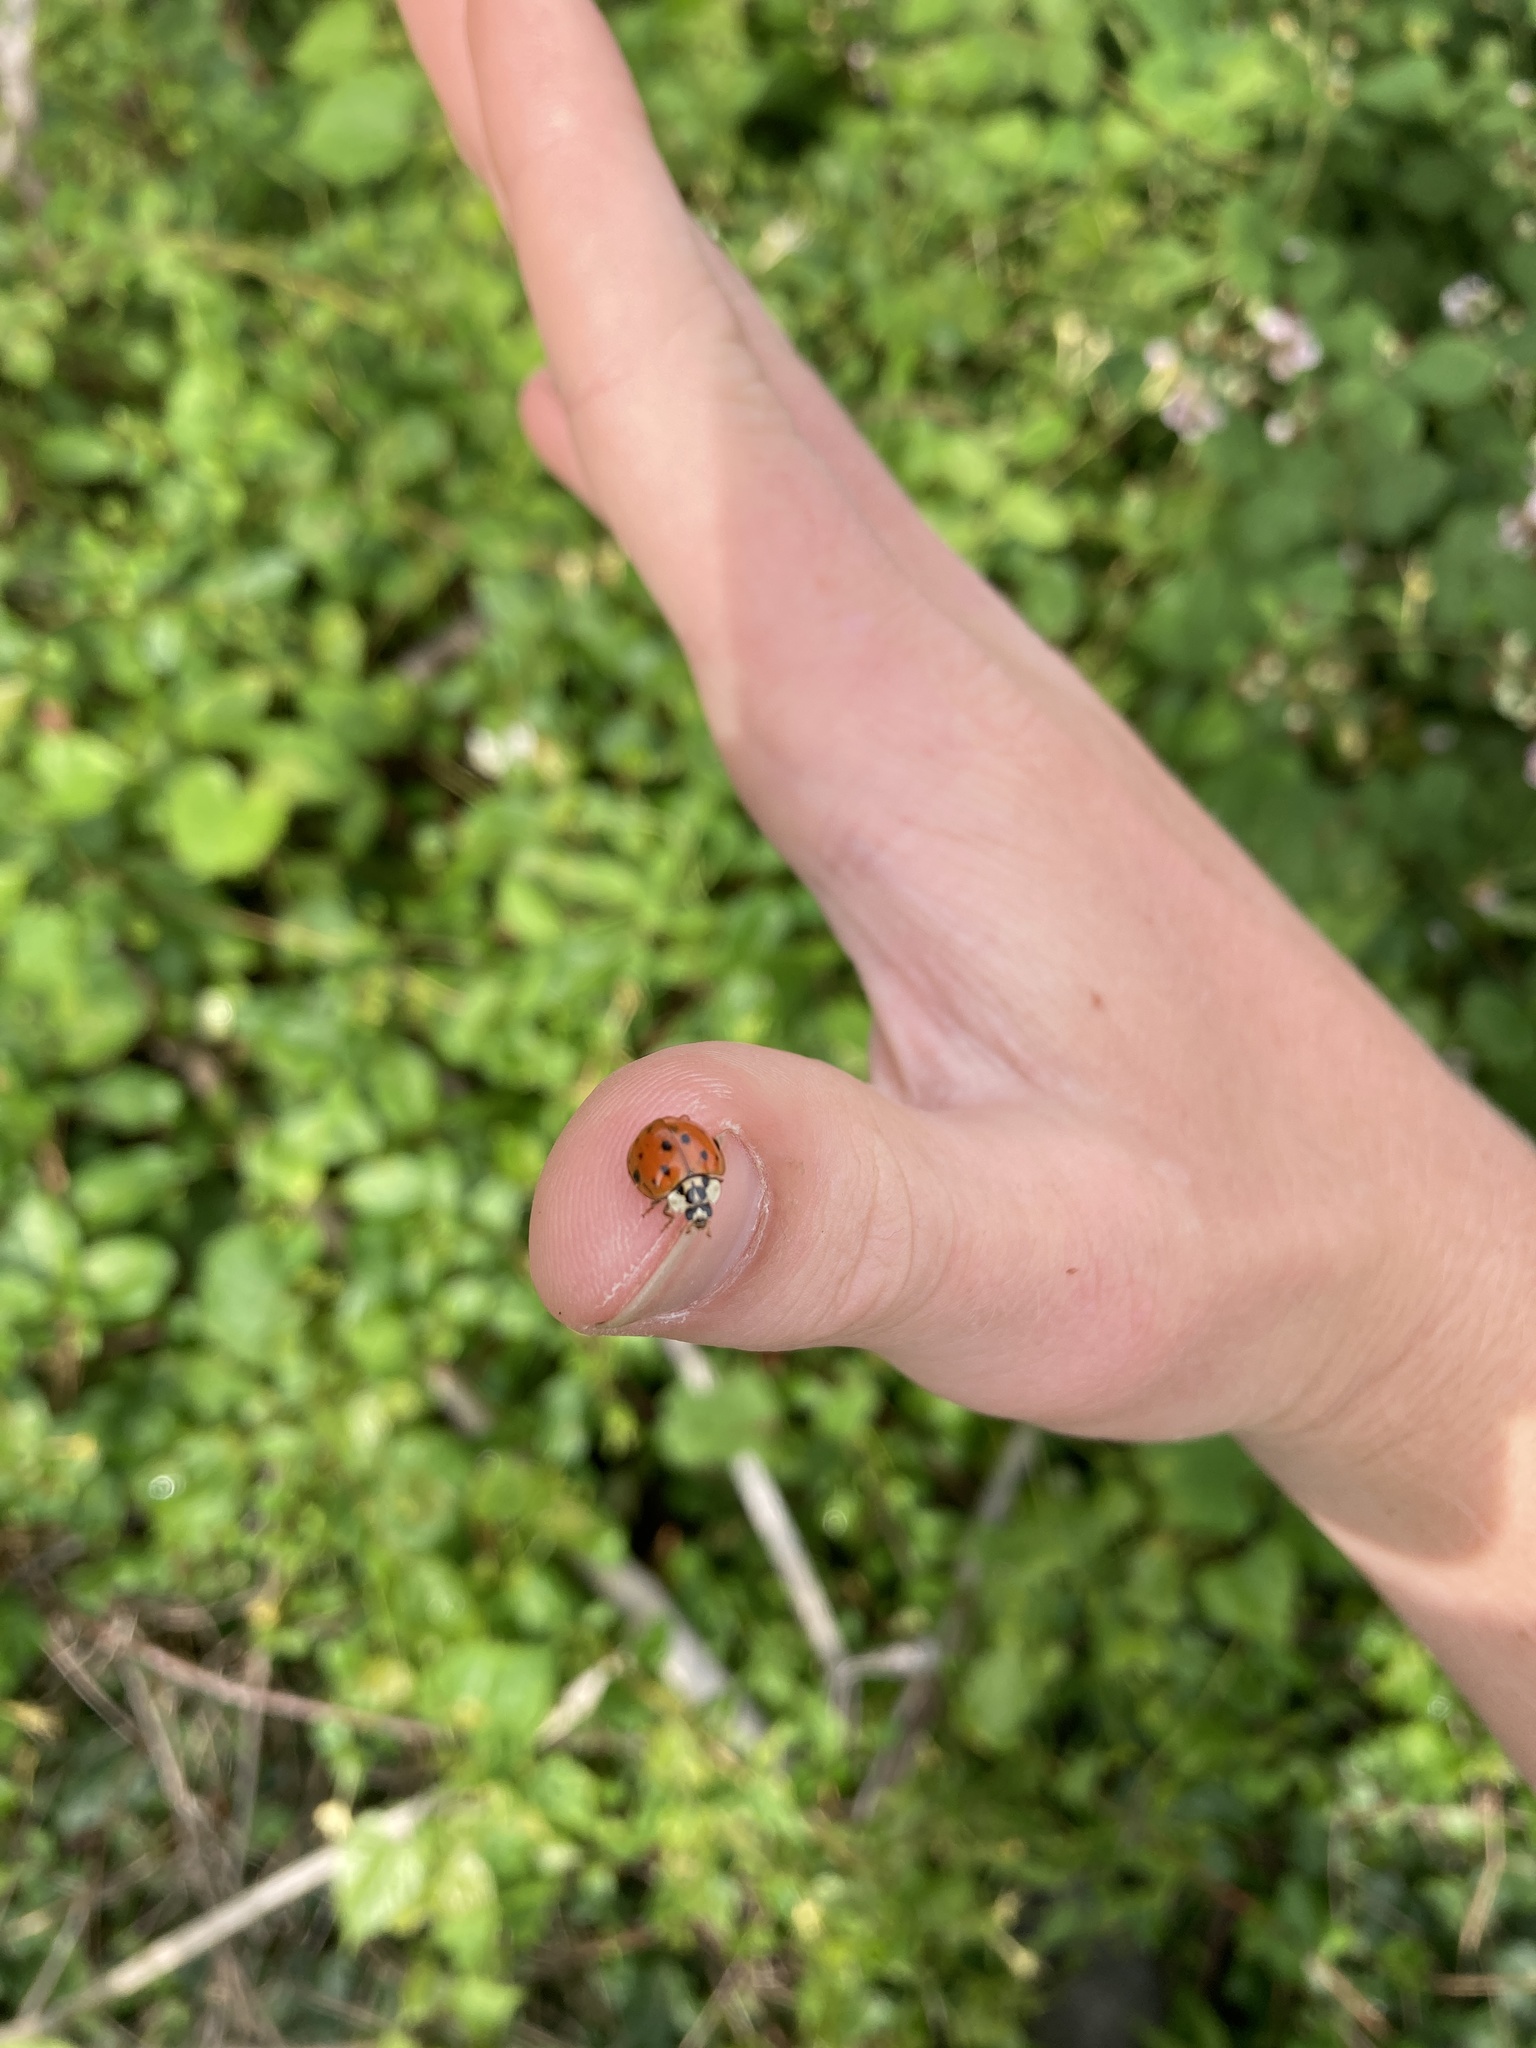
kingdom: Animalia
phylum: Arthropoda
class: Insecta
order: Coleoptera
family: Coccinellidae
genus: Harmonia
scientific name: Harmonia axyridis
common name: Harlequin ladybird
